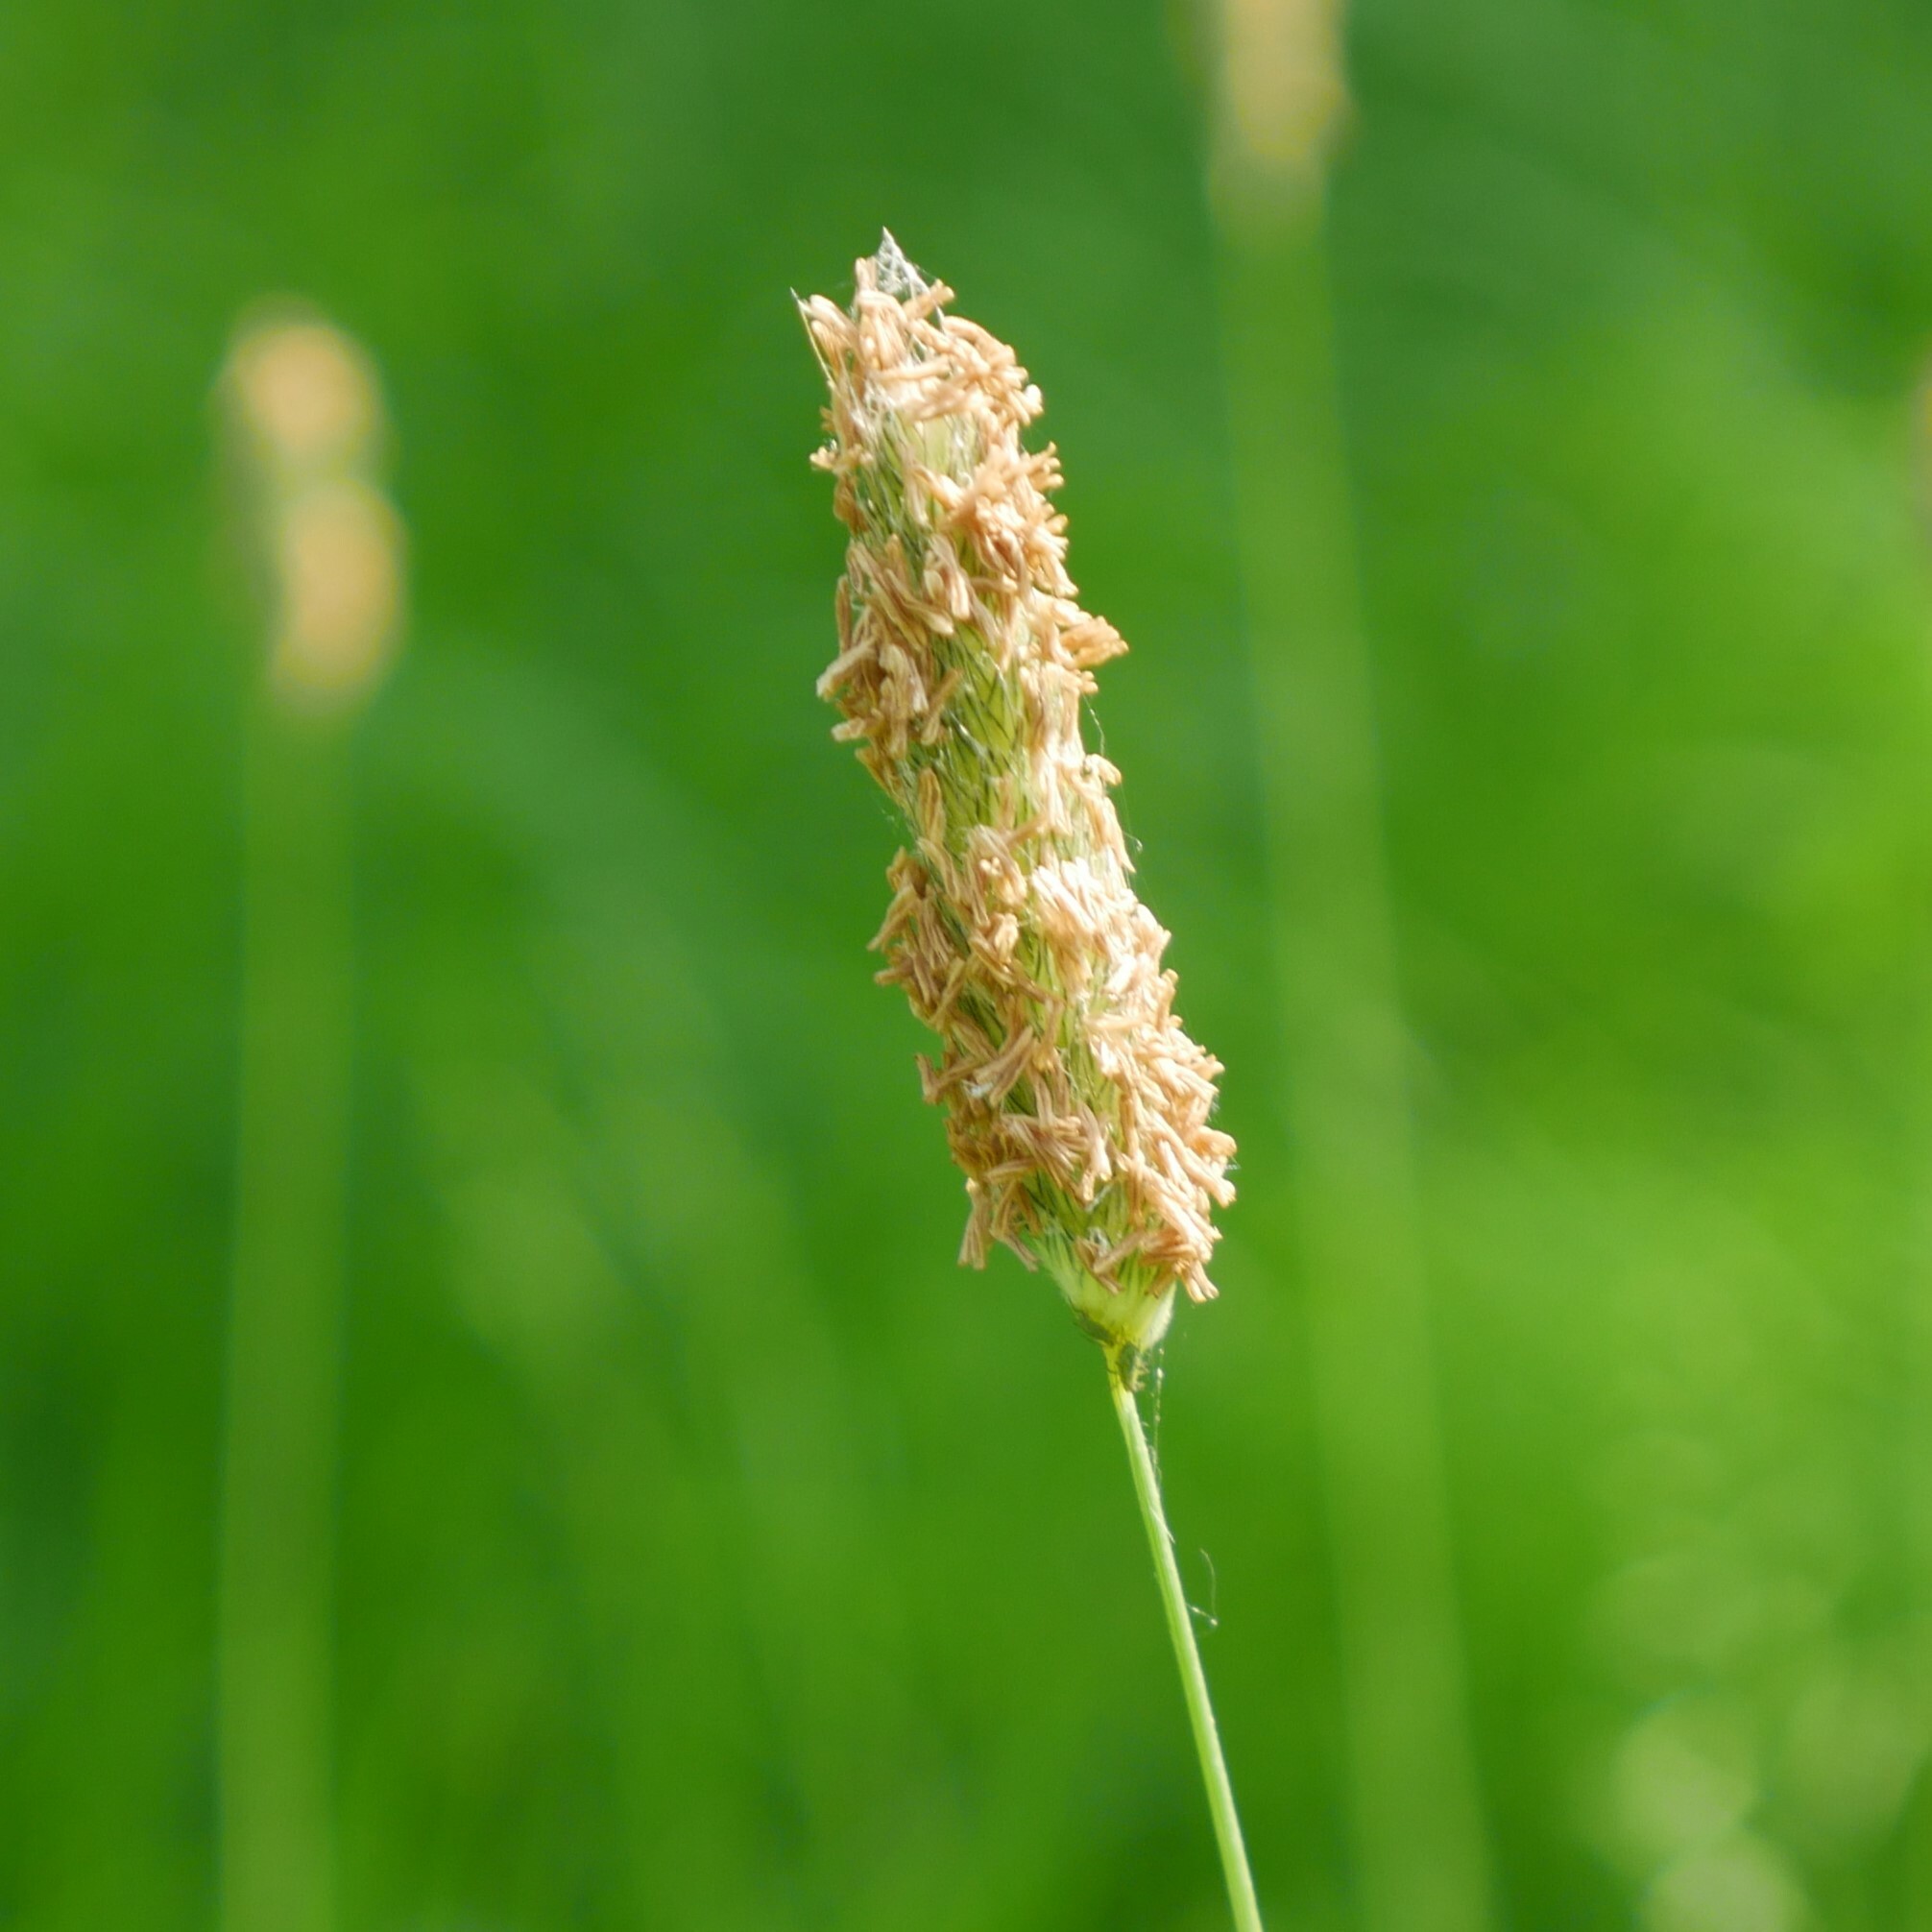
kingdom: Plantae
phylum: Tracheophyta
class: Liliopsida
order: Poales
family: Poaceae
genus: Alopecurus
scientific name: Alopecurus pratensis
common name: Meadow foxtail
